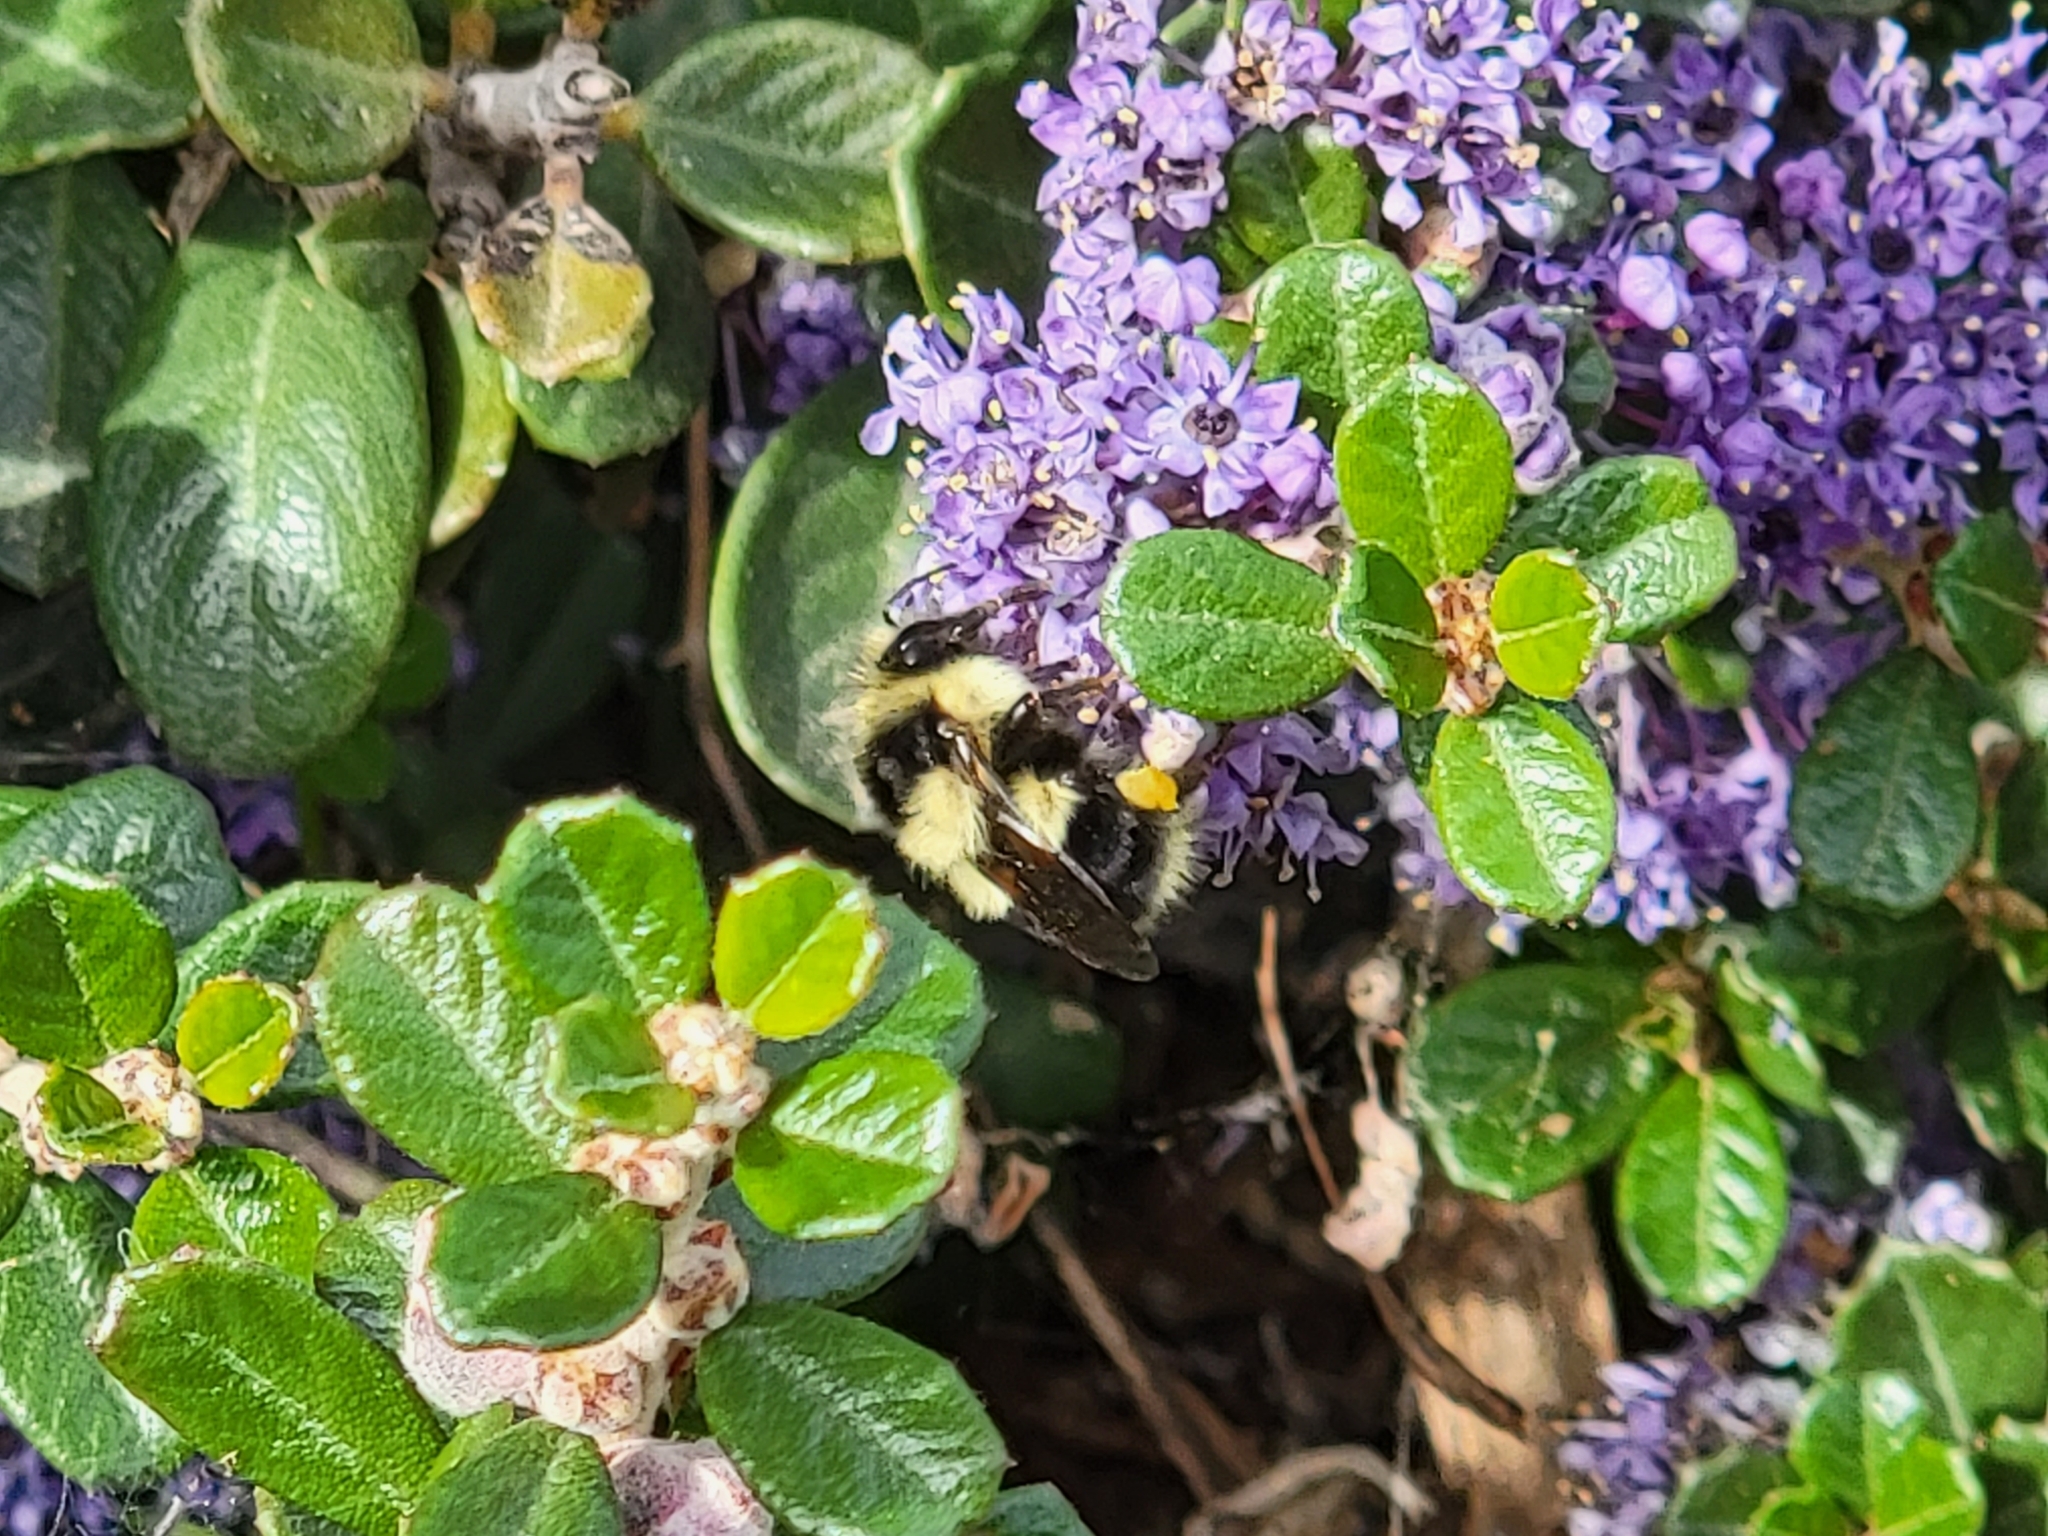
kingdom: Animalia
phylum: Arthropoda
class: Insecta
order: Hymenoptera
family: Apidae
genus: Bombus
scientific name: Bombus melanopygus
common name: Black tail bumble bee
